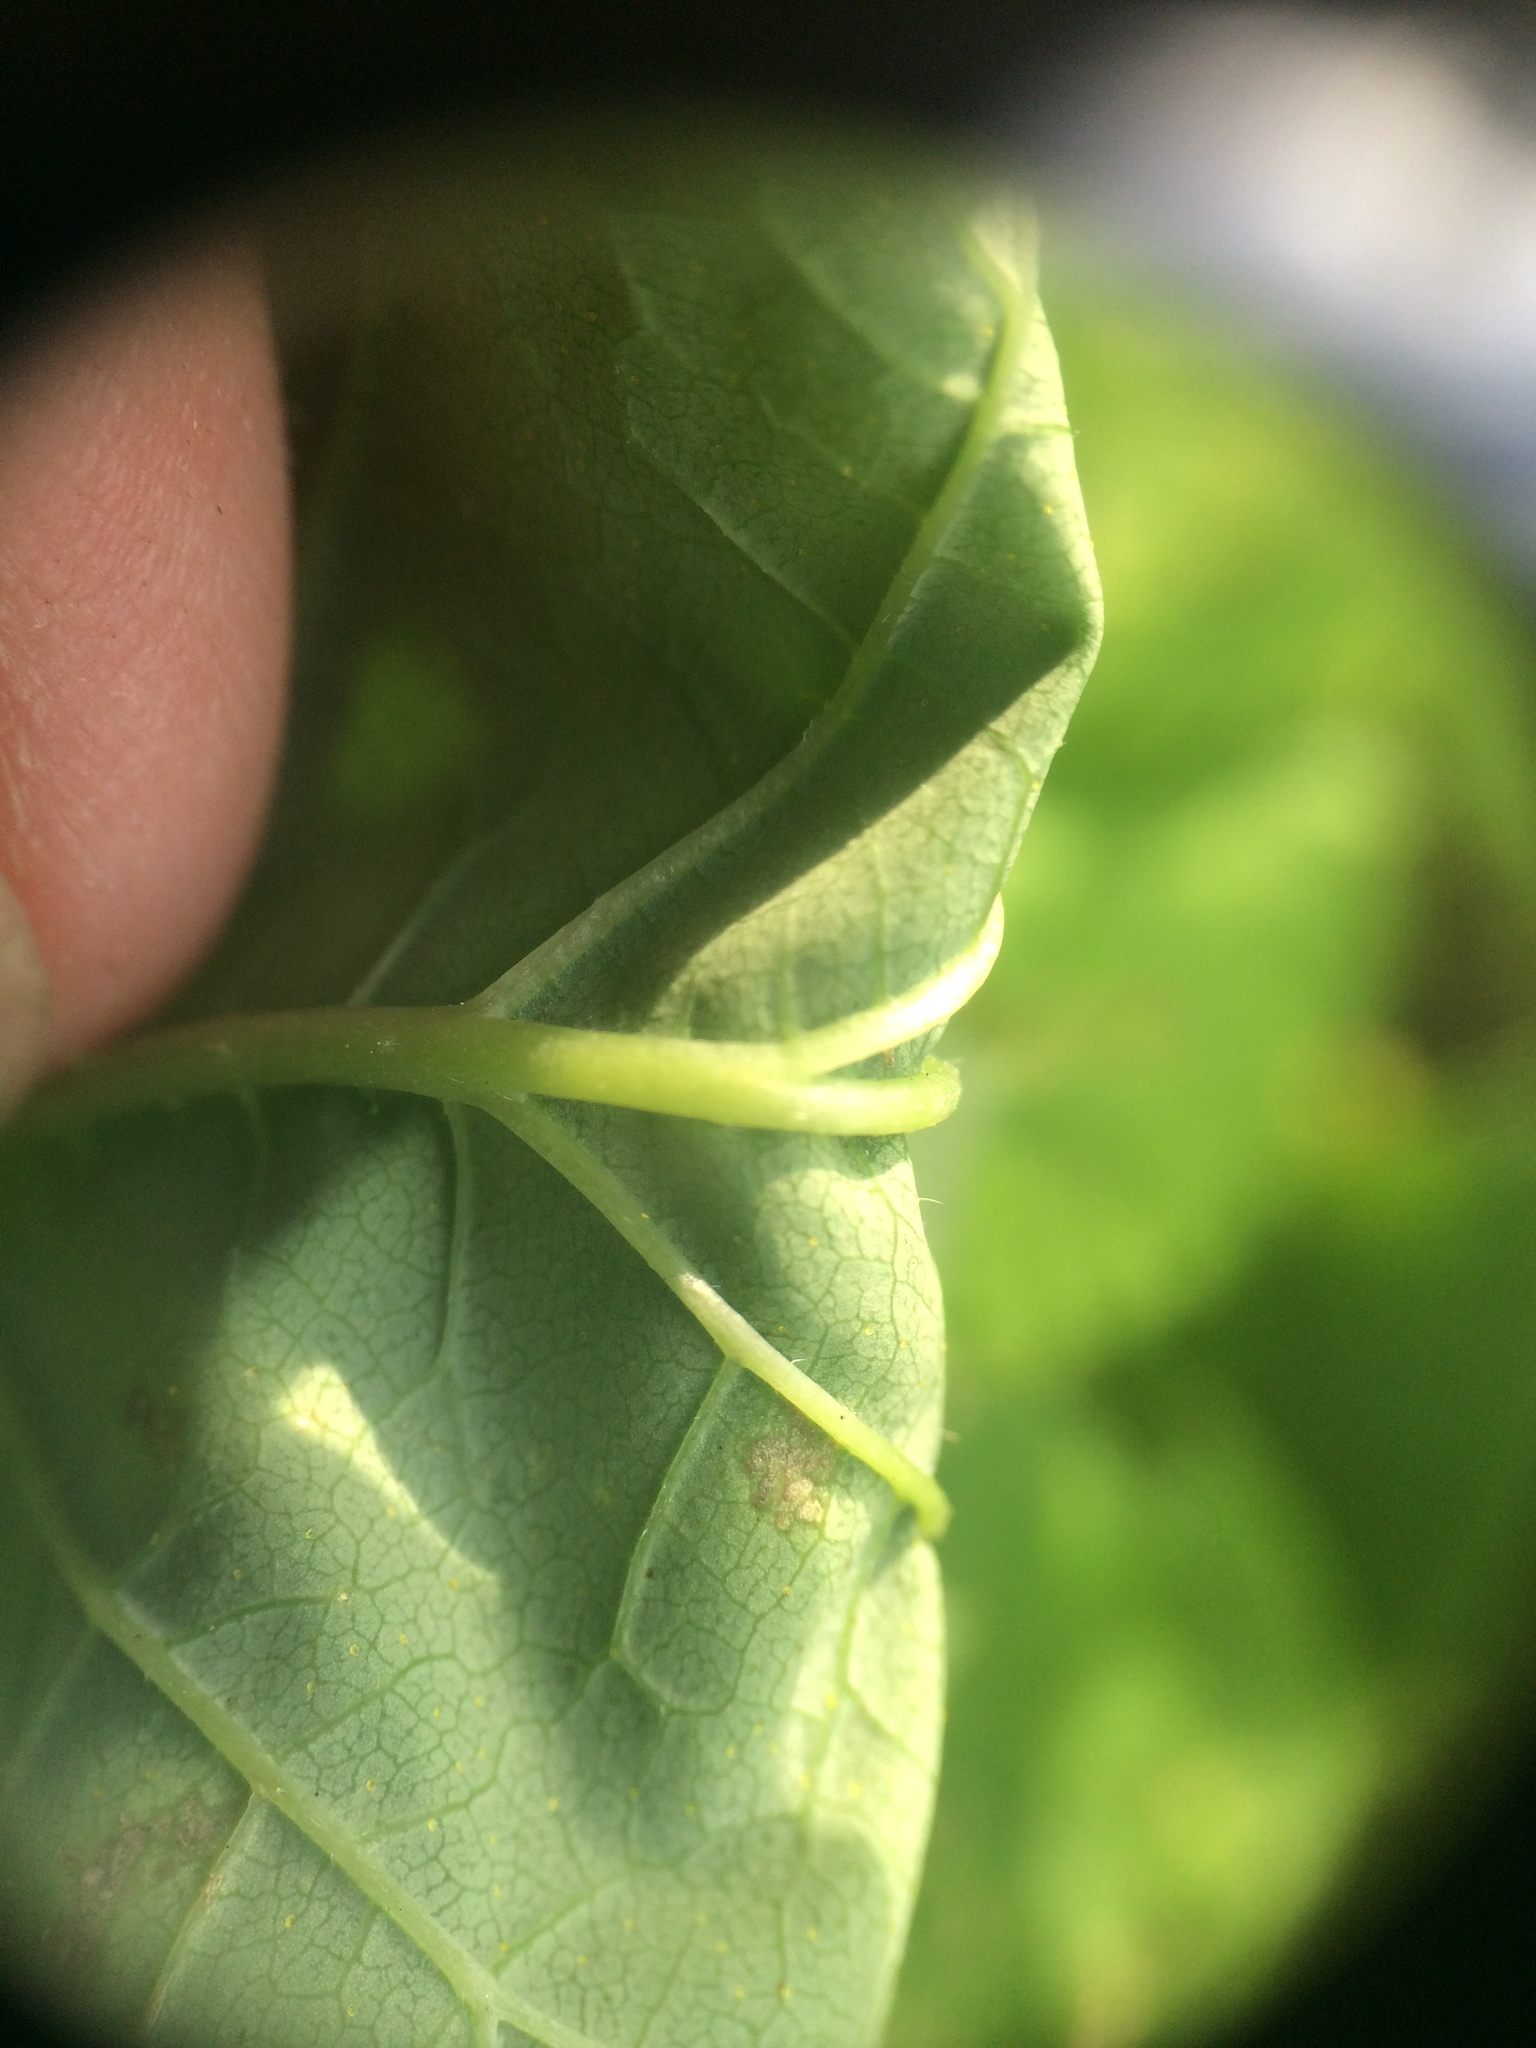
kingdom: Plantae
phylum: Tracheophyta
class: Magnoliopsida
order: Rosales
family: Cannabaceae
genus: Humulus
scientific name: Humulus lupulus
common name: Hop
